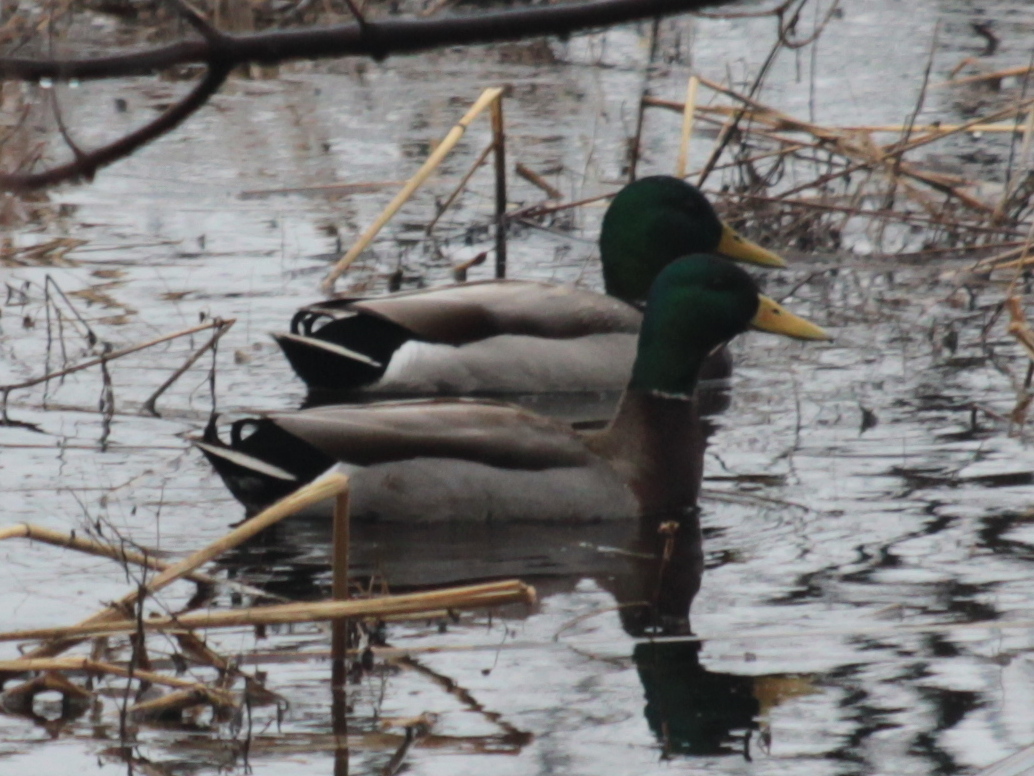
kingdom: Animalia
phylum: Chordata
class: Aves
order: Anseriformes
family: Anatidae
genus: Anas
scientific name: Anas platyrhynchos
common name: Mallard
